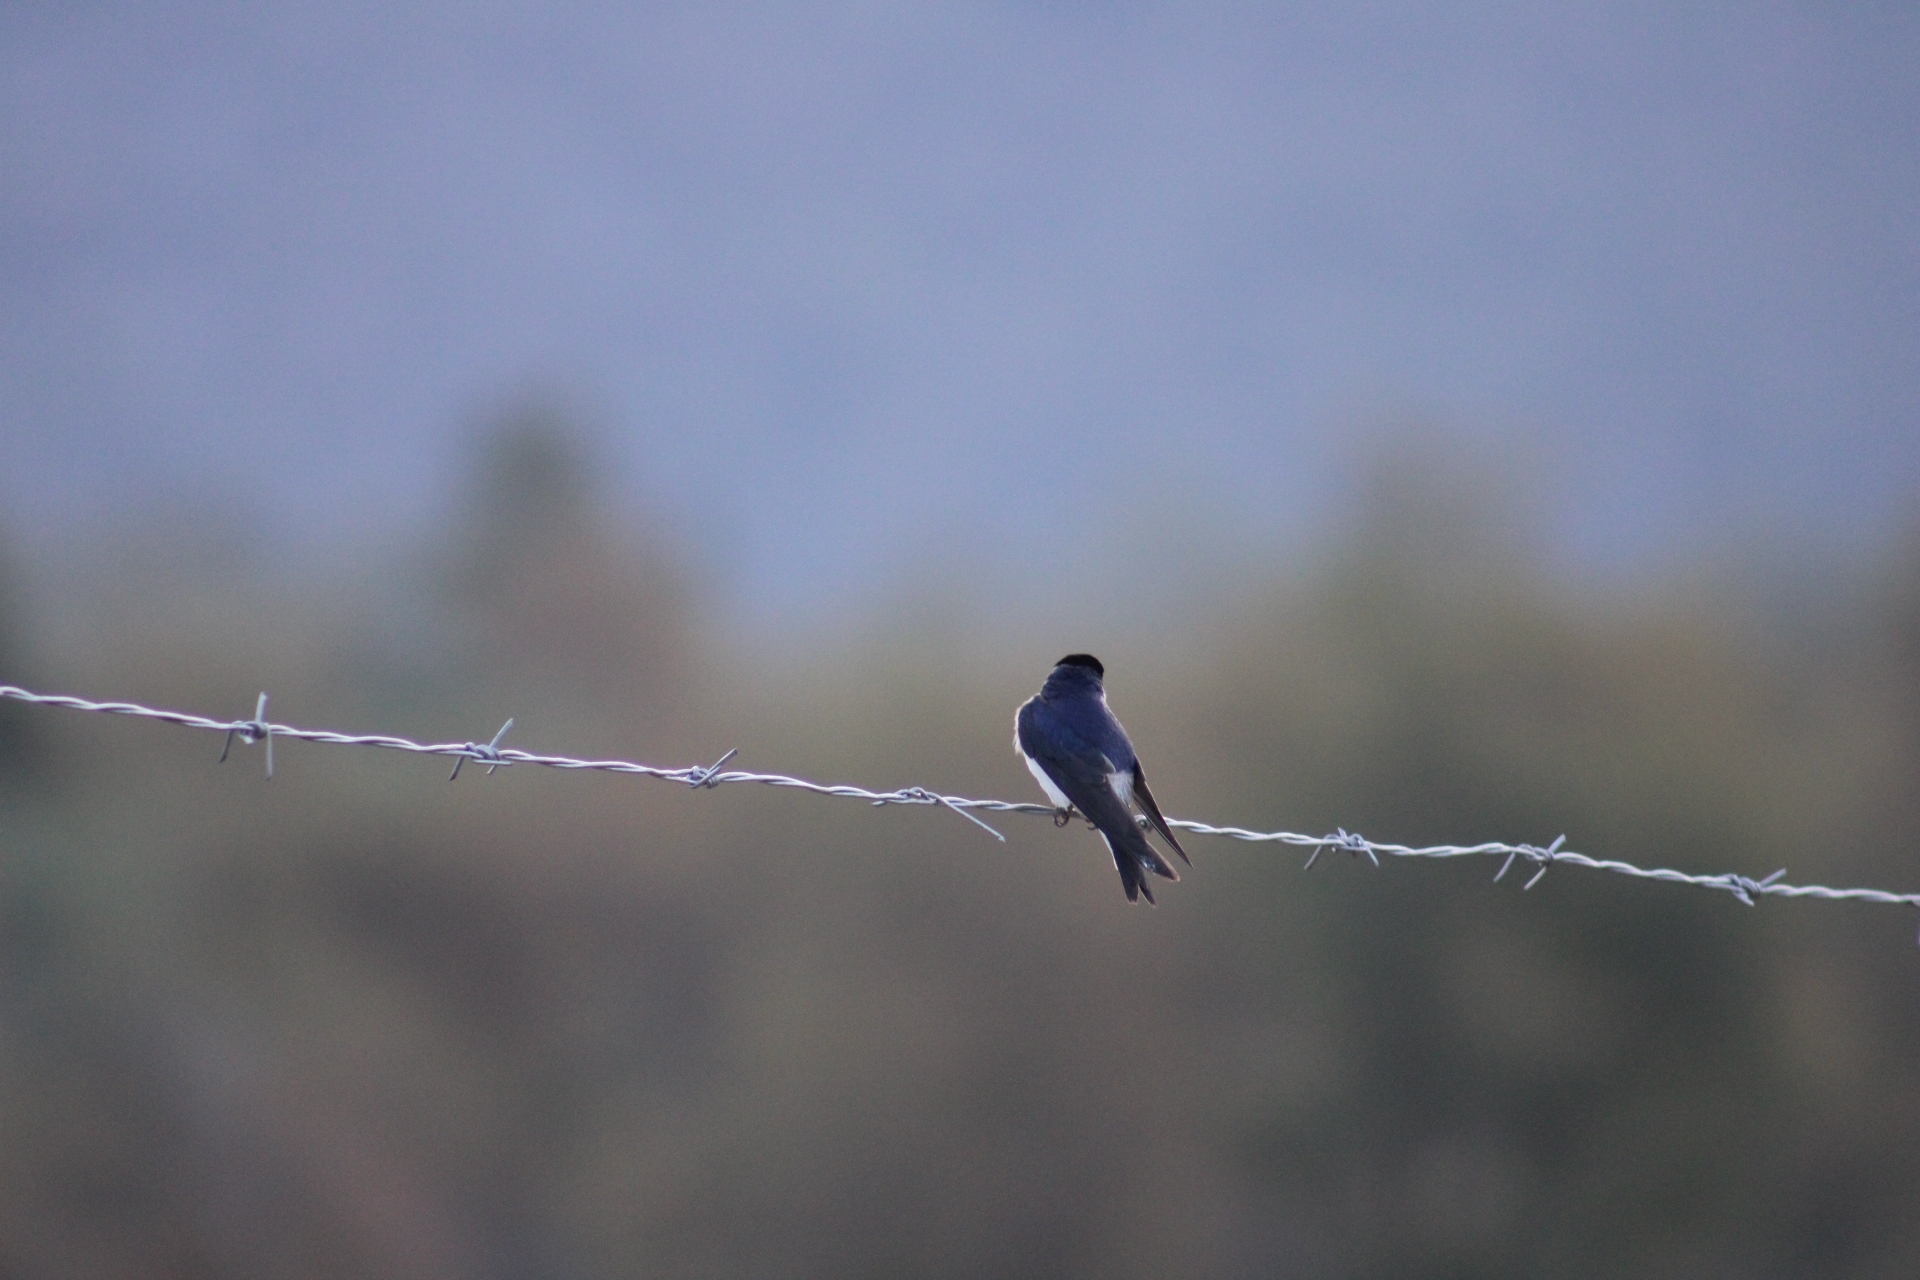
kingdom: Animalia
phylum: Chordata
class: Aves
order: Passeriformes
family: Hirundinidae
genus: Tachycineta
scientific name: Tachycineta leucopyga
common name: Chilean swallow
